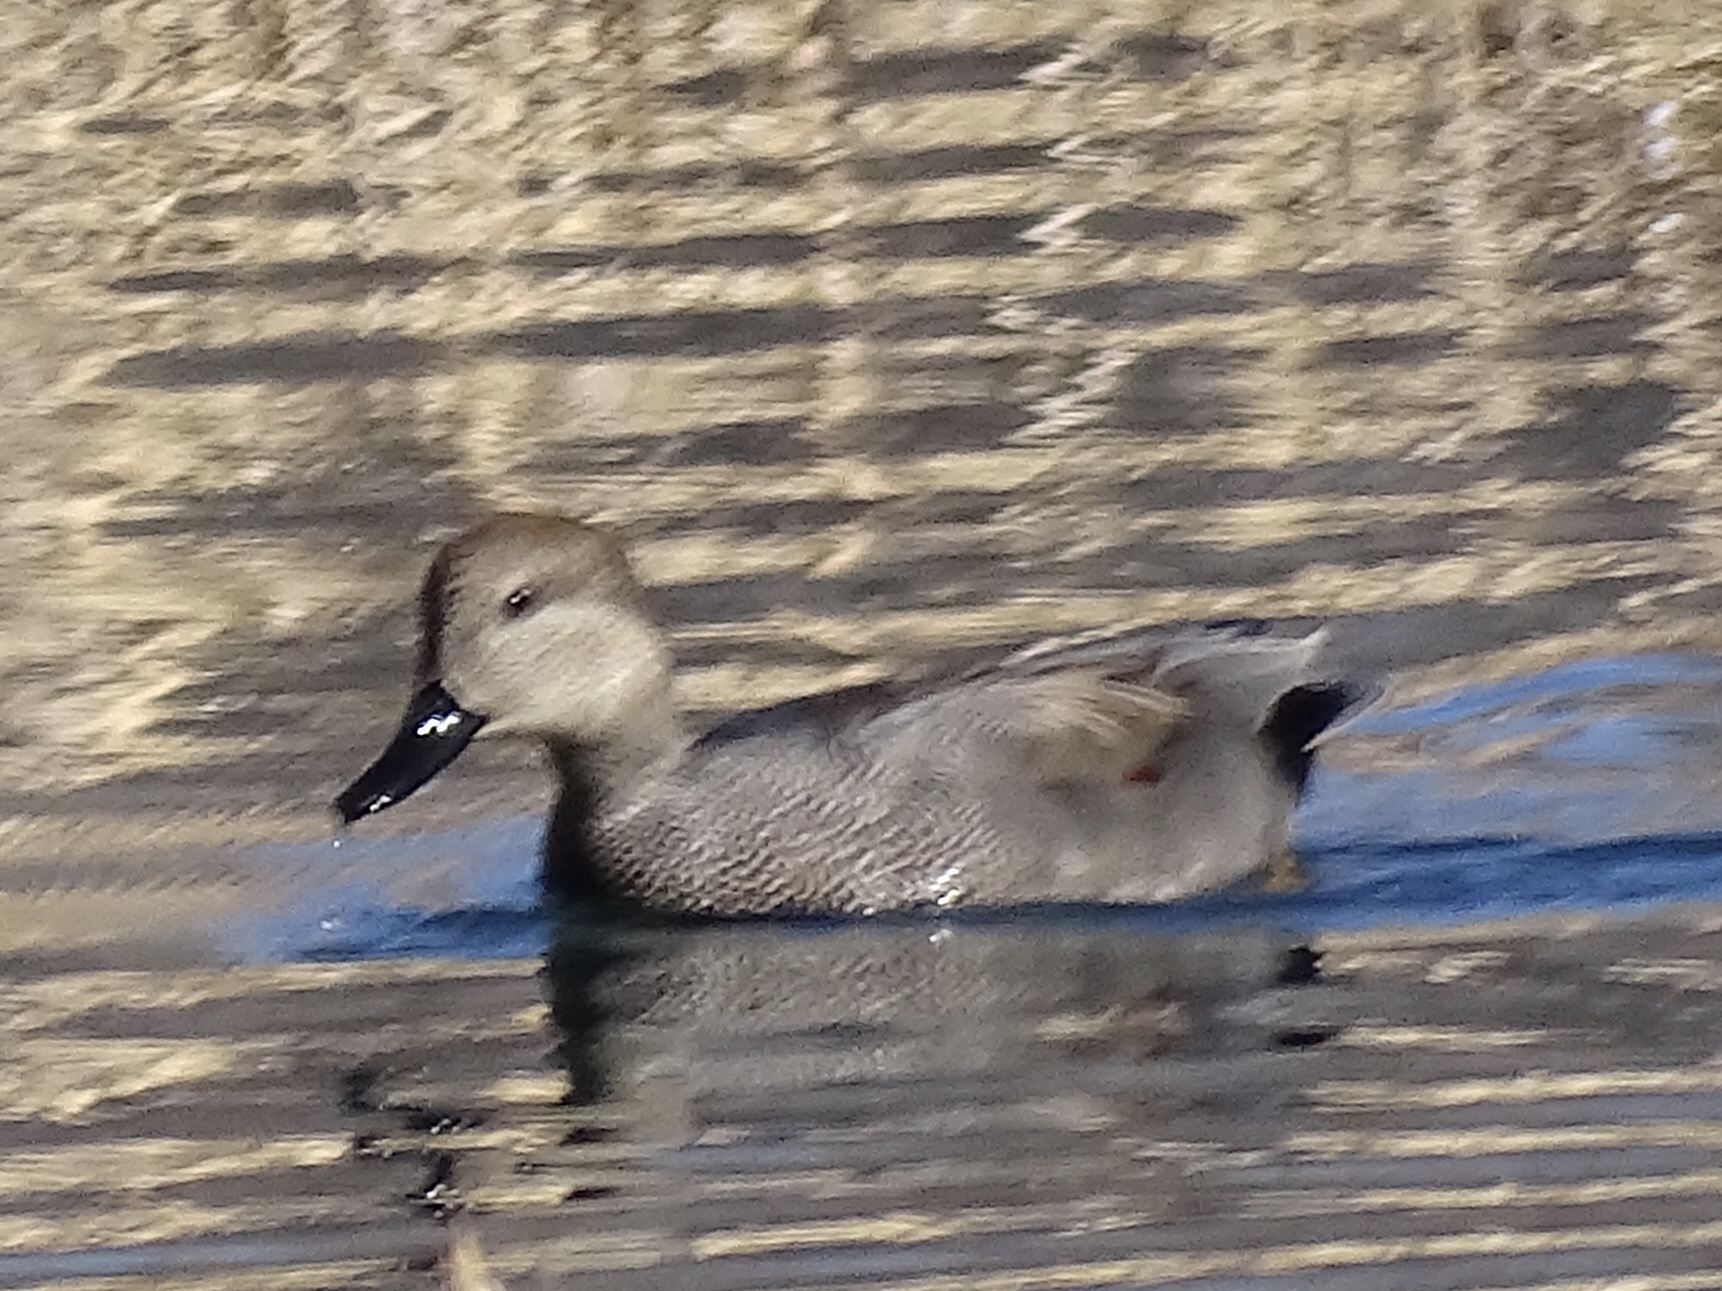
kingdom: Animalia
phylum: Chordata
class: Aves
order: Anseriformes
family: Anatidae
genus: Mareca
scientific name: Mareca strepera
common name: Gadwall
